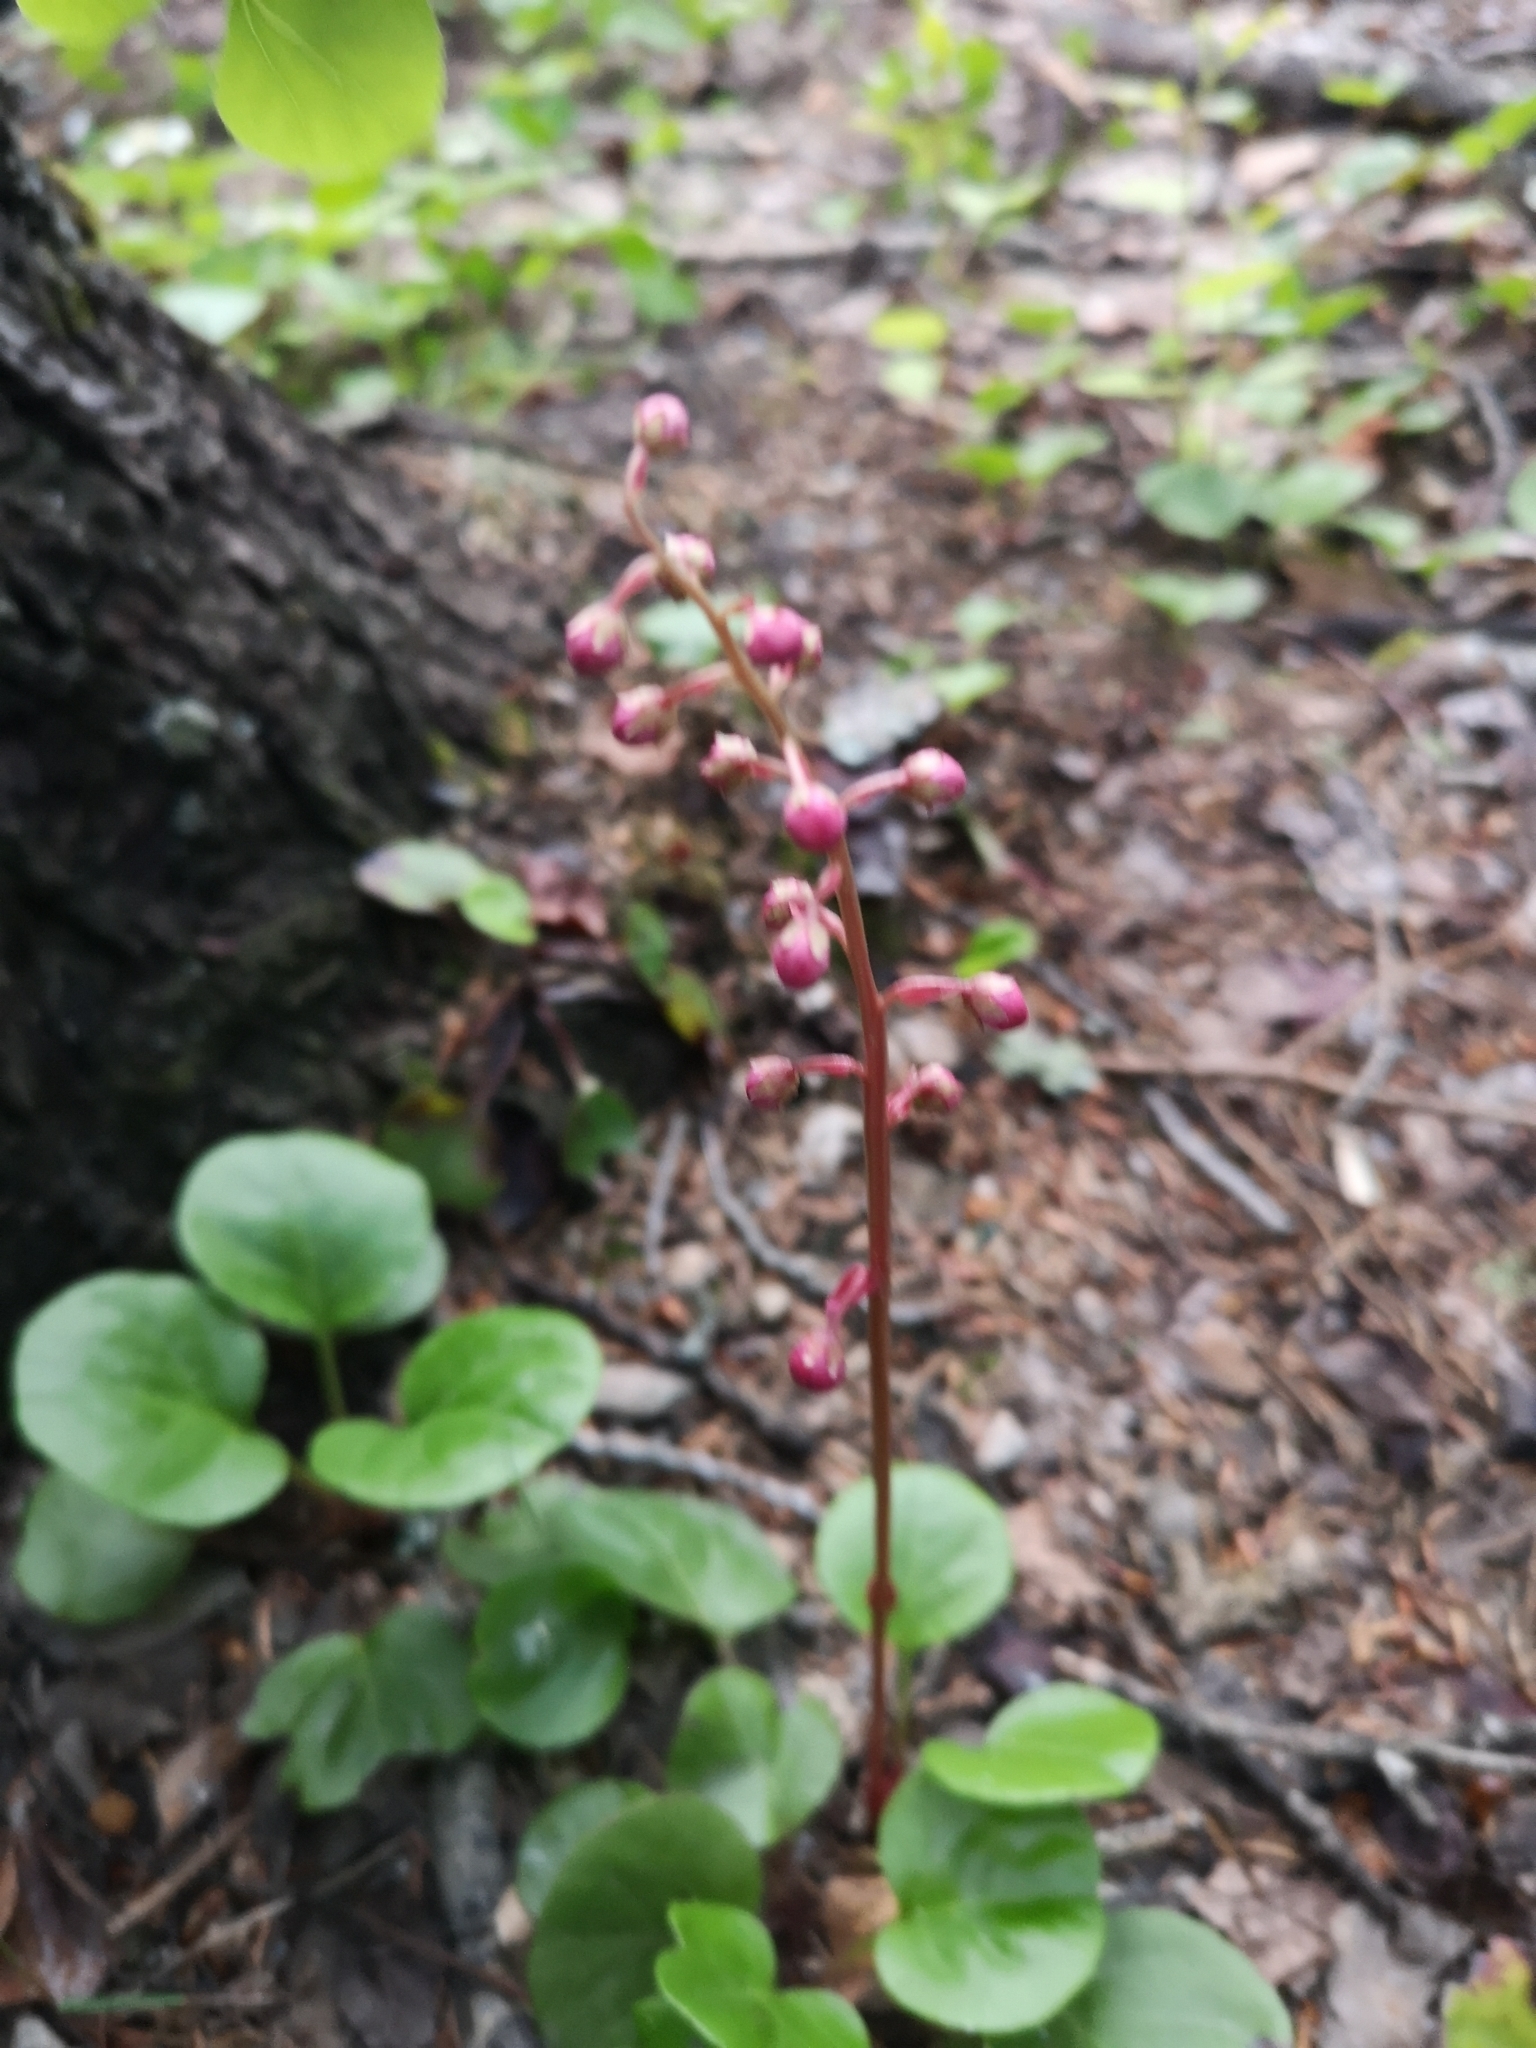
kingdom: Plantae
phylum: Tracheophyta
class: Magnoliopsida
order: Ericales
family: Ericaceae
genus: Pyrola
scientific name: Pyrola asarifolia
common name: Bog wintergreen
